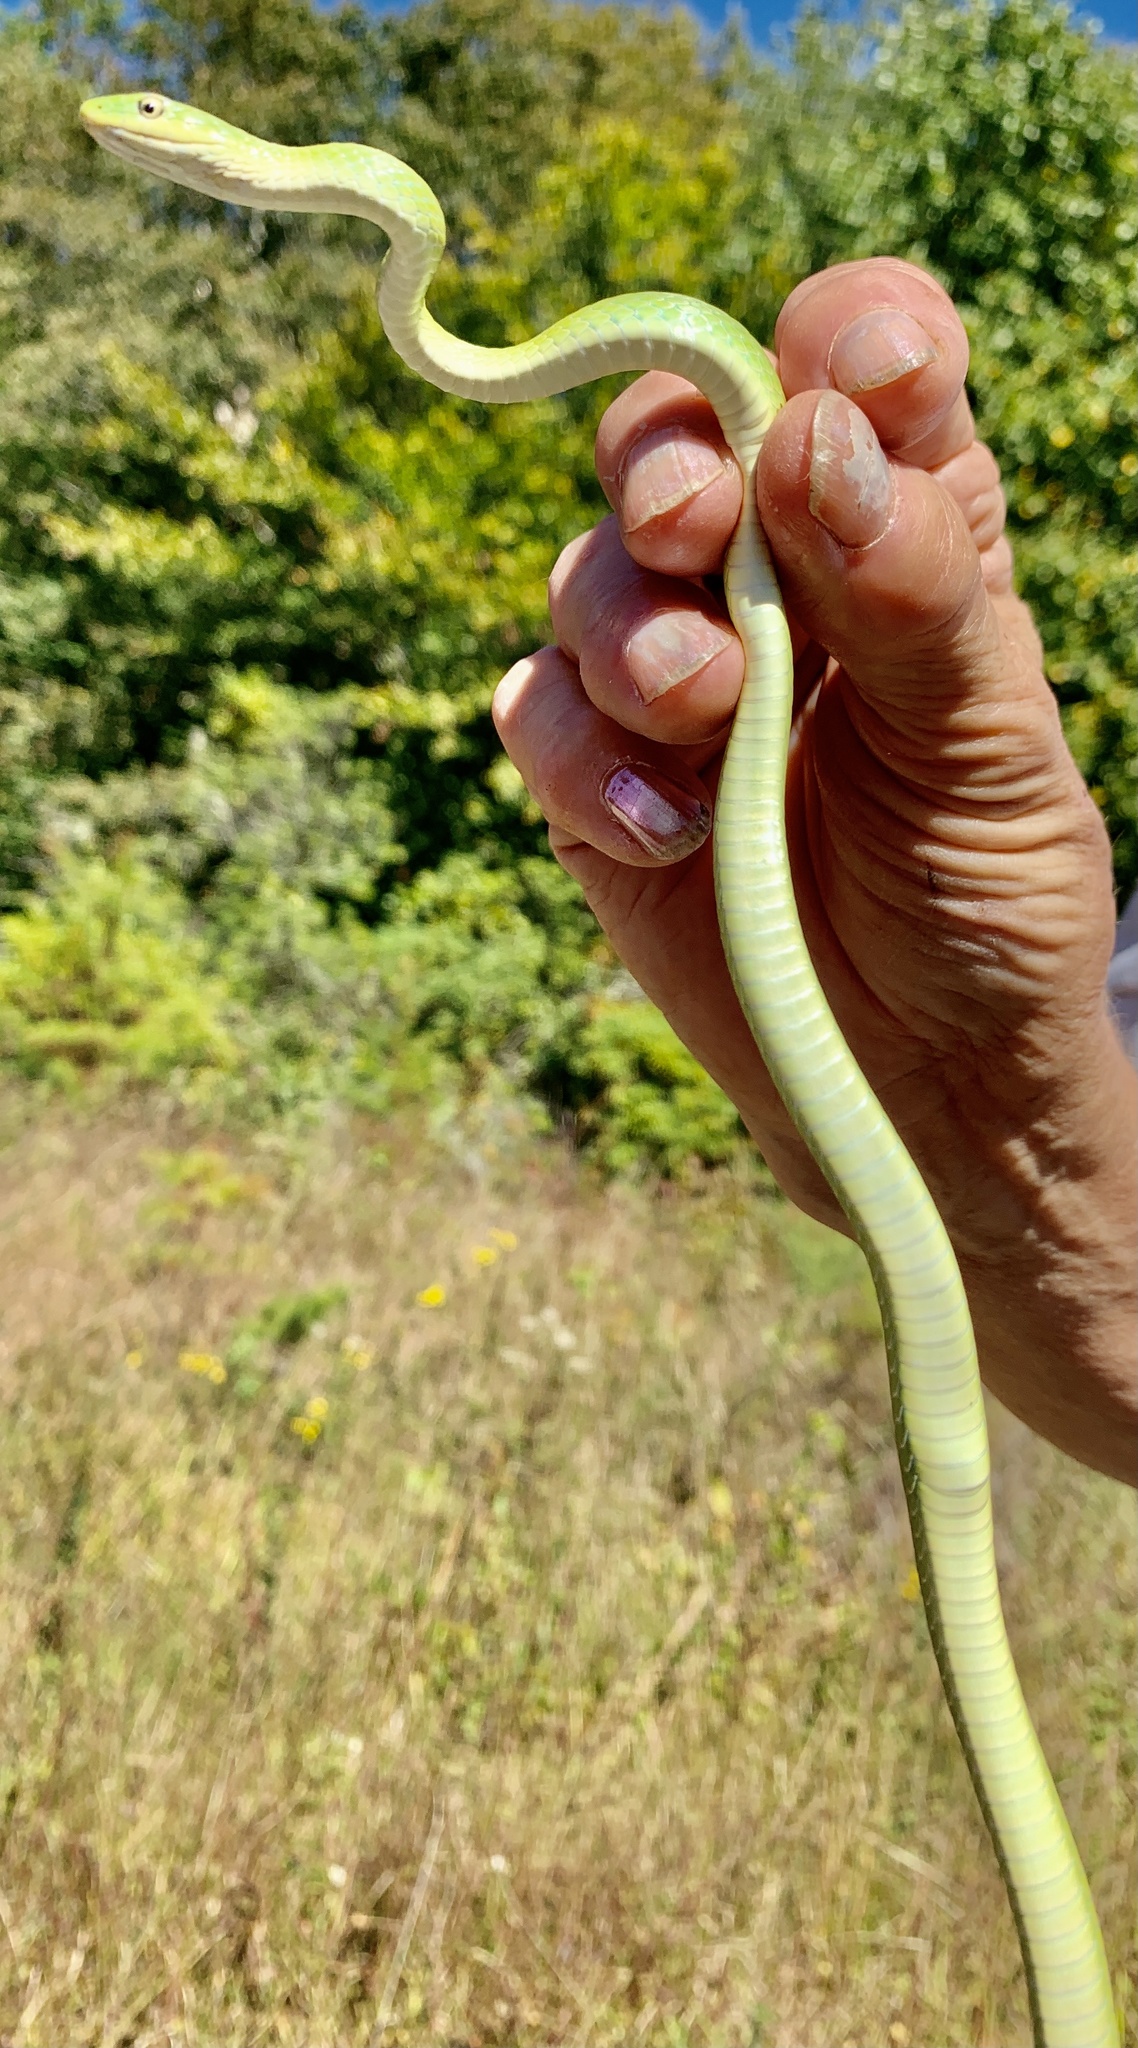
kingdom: Animalia
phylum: Chordata
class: Squamata
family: Colubridae
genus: Opheodrys
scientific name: Opheodrys aestivus
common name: Rough greensnake
